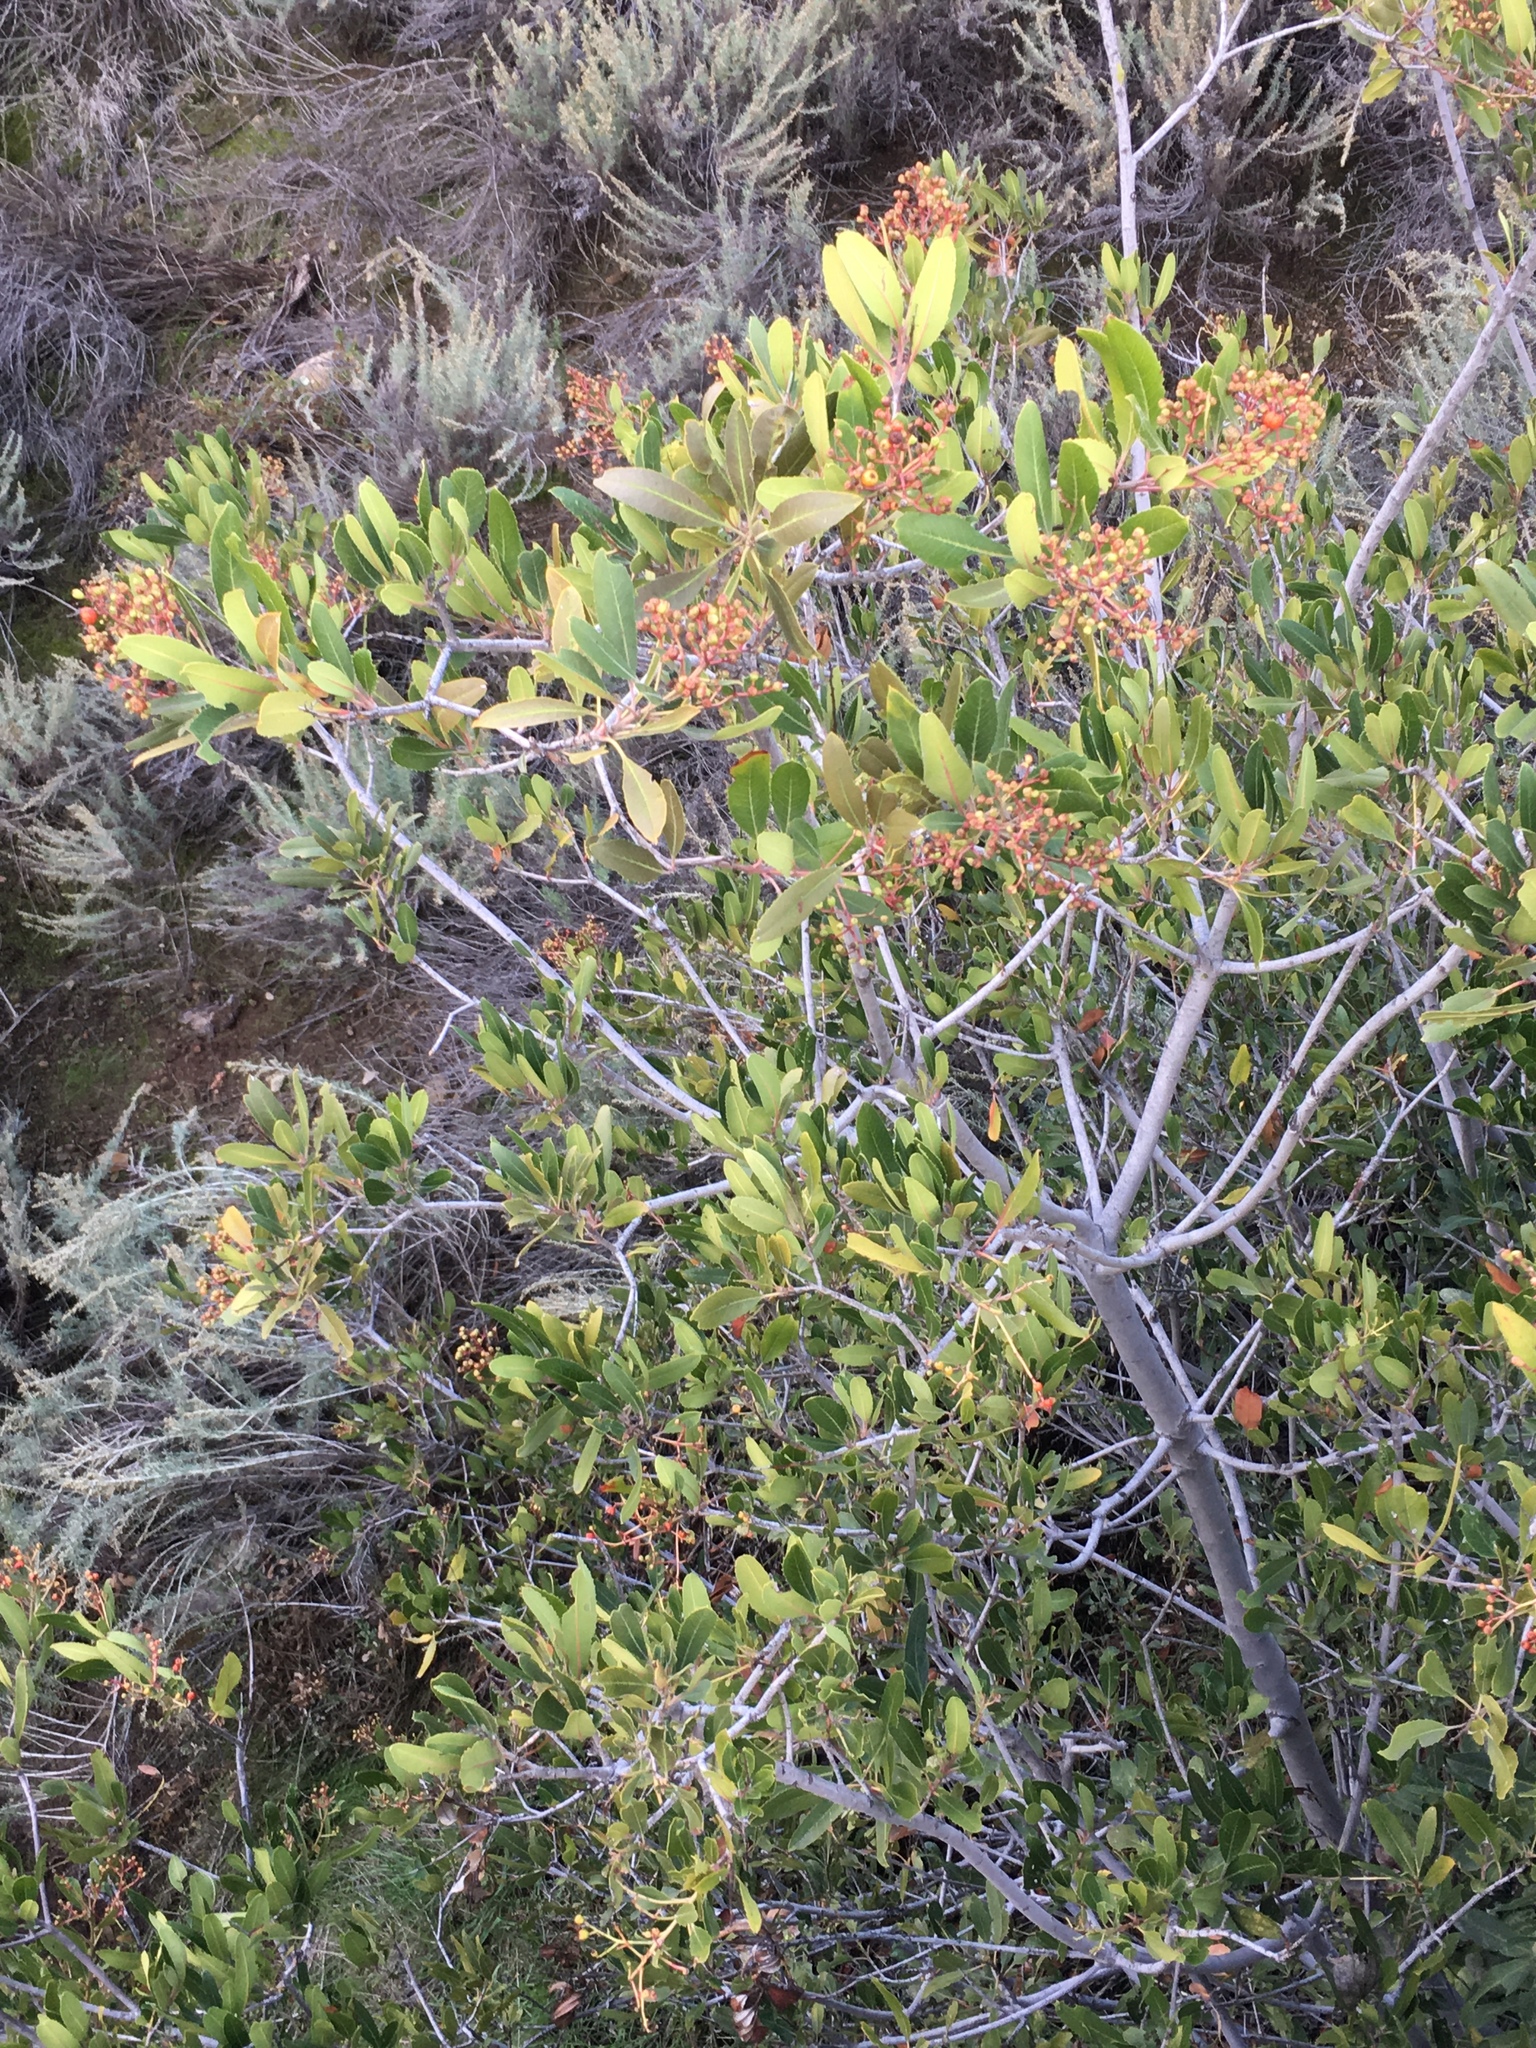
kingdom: Plantae
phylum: Tracheophyta
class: Magnoliopsida
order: Rosales
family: Rosaceae
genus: Heteromeles
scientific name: Heteromeles arbutifolia
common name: California-holly
